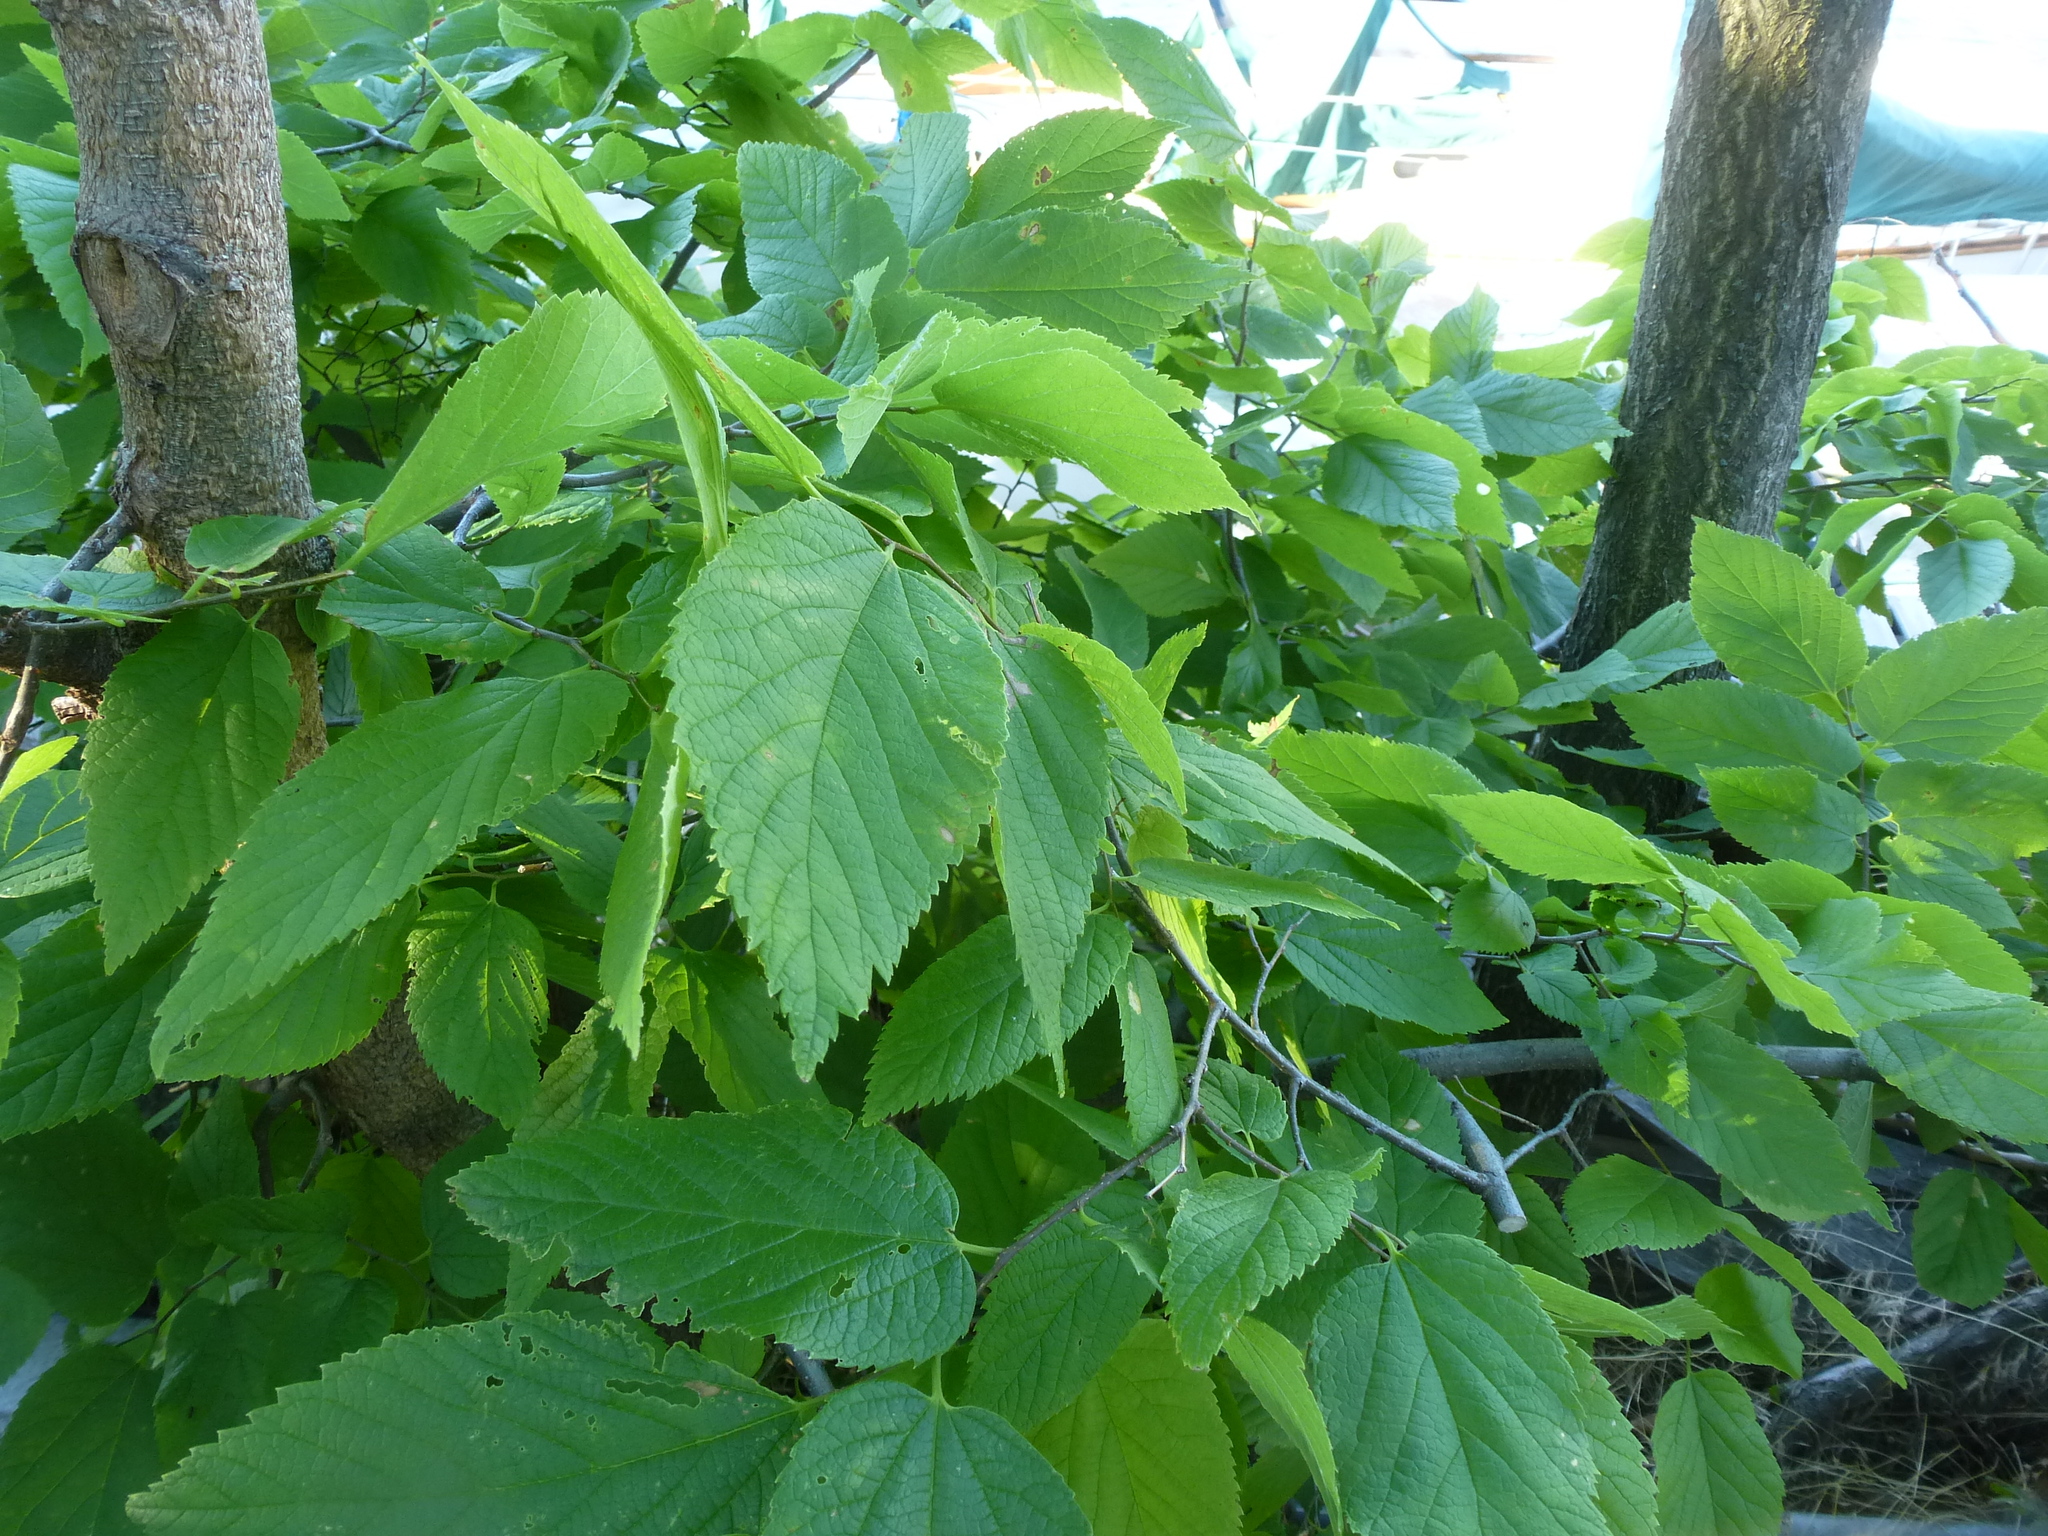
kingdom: Plantae
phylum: Tracheophyta
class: Magnoliopsida
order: Rosales
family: Cannabaceae
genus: Celtis
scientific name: Celtis occidentalis
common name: Common hackberry
